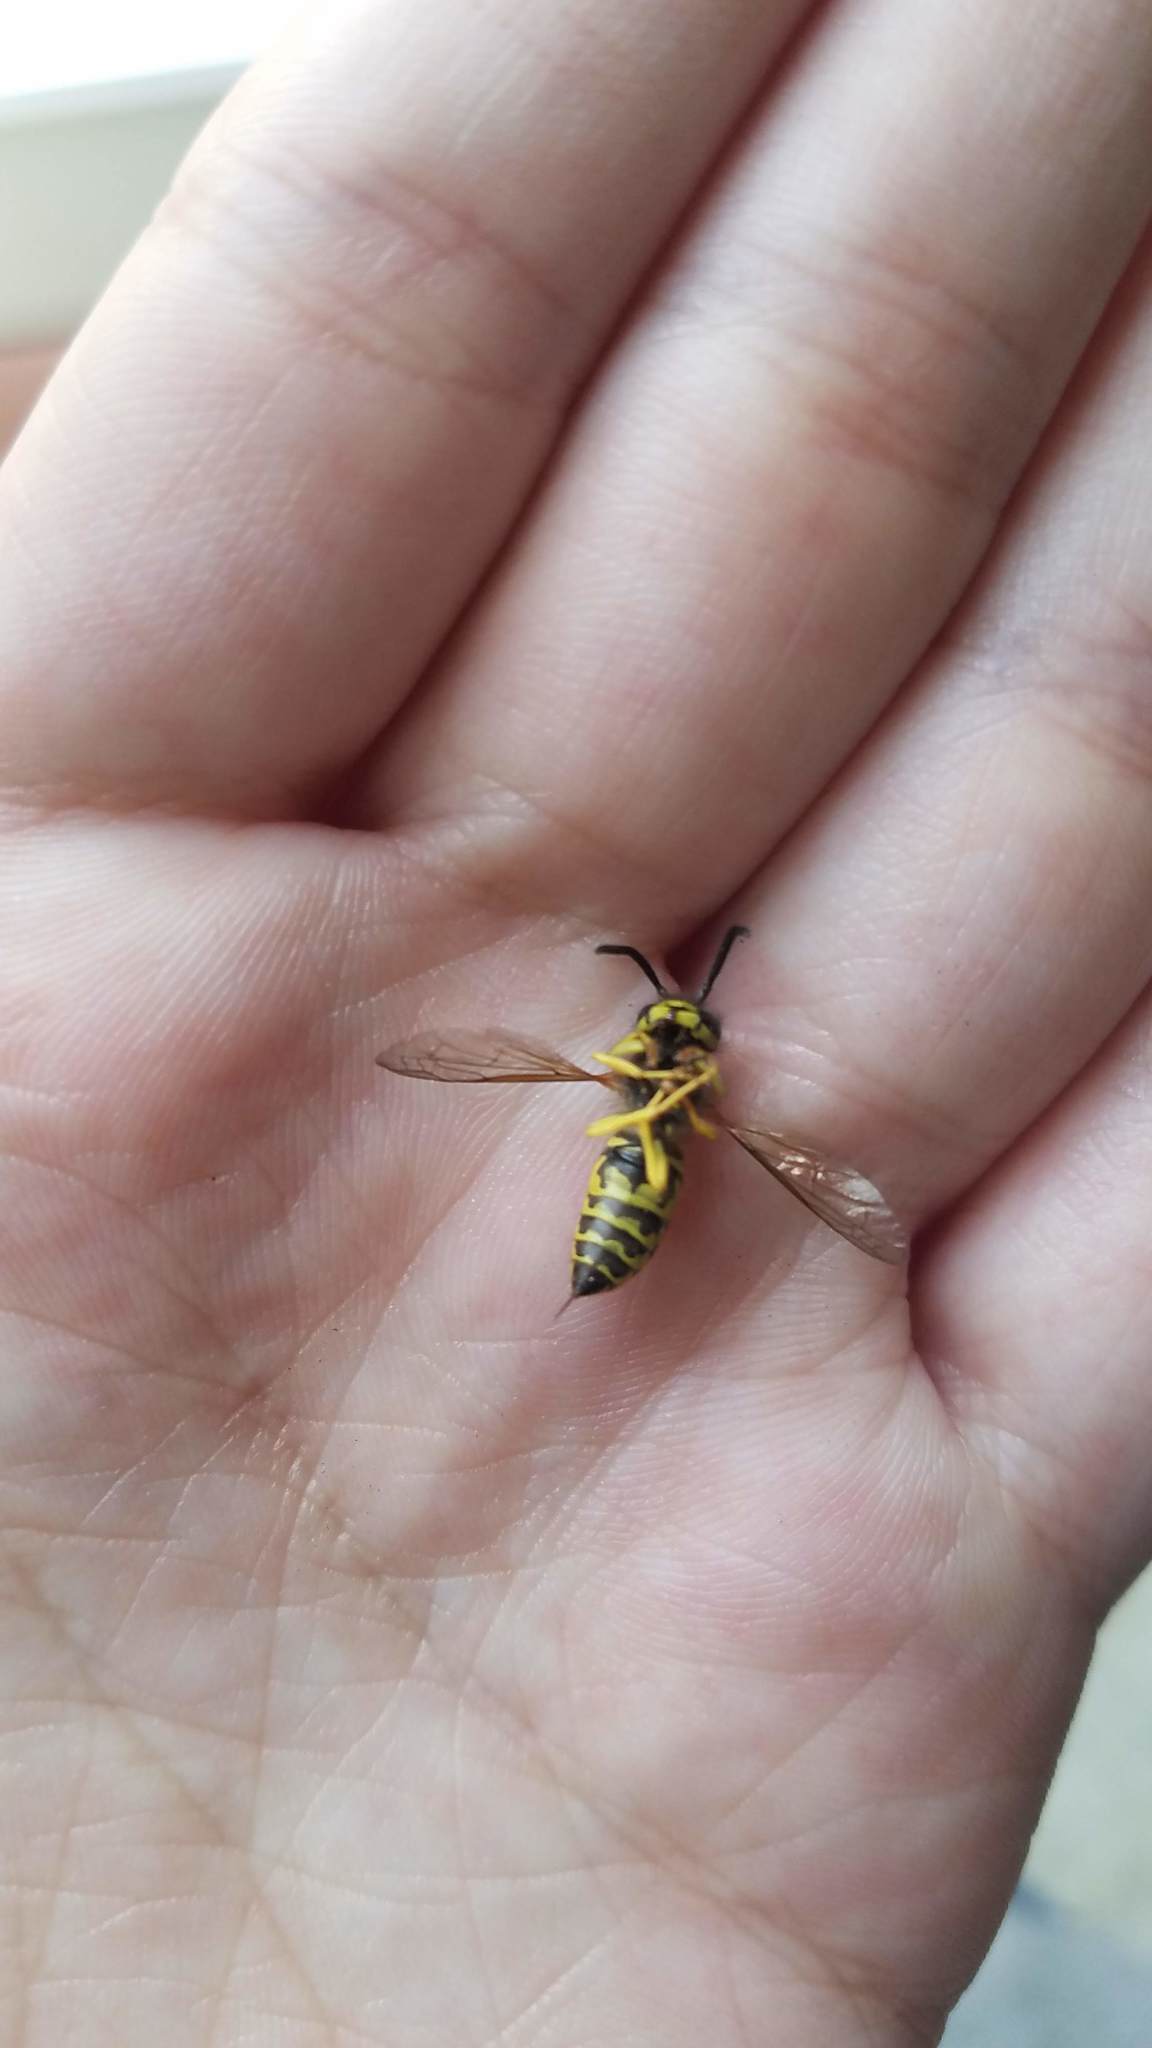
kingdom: Animalia
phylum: Arthropoda
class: Insecta
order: Hymenoptera
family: Vespidae
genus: Vespula
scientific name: Vespula maculifrons
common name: Eastern yellowjacket
